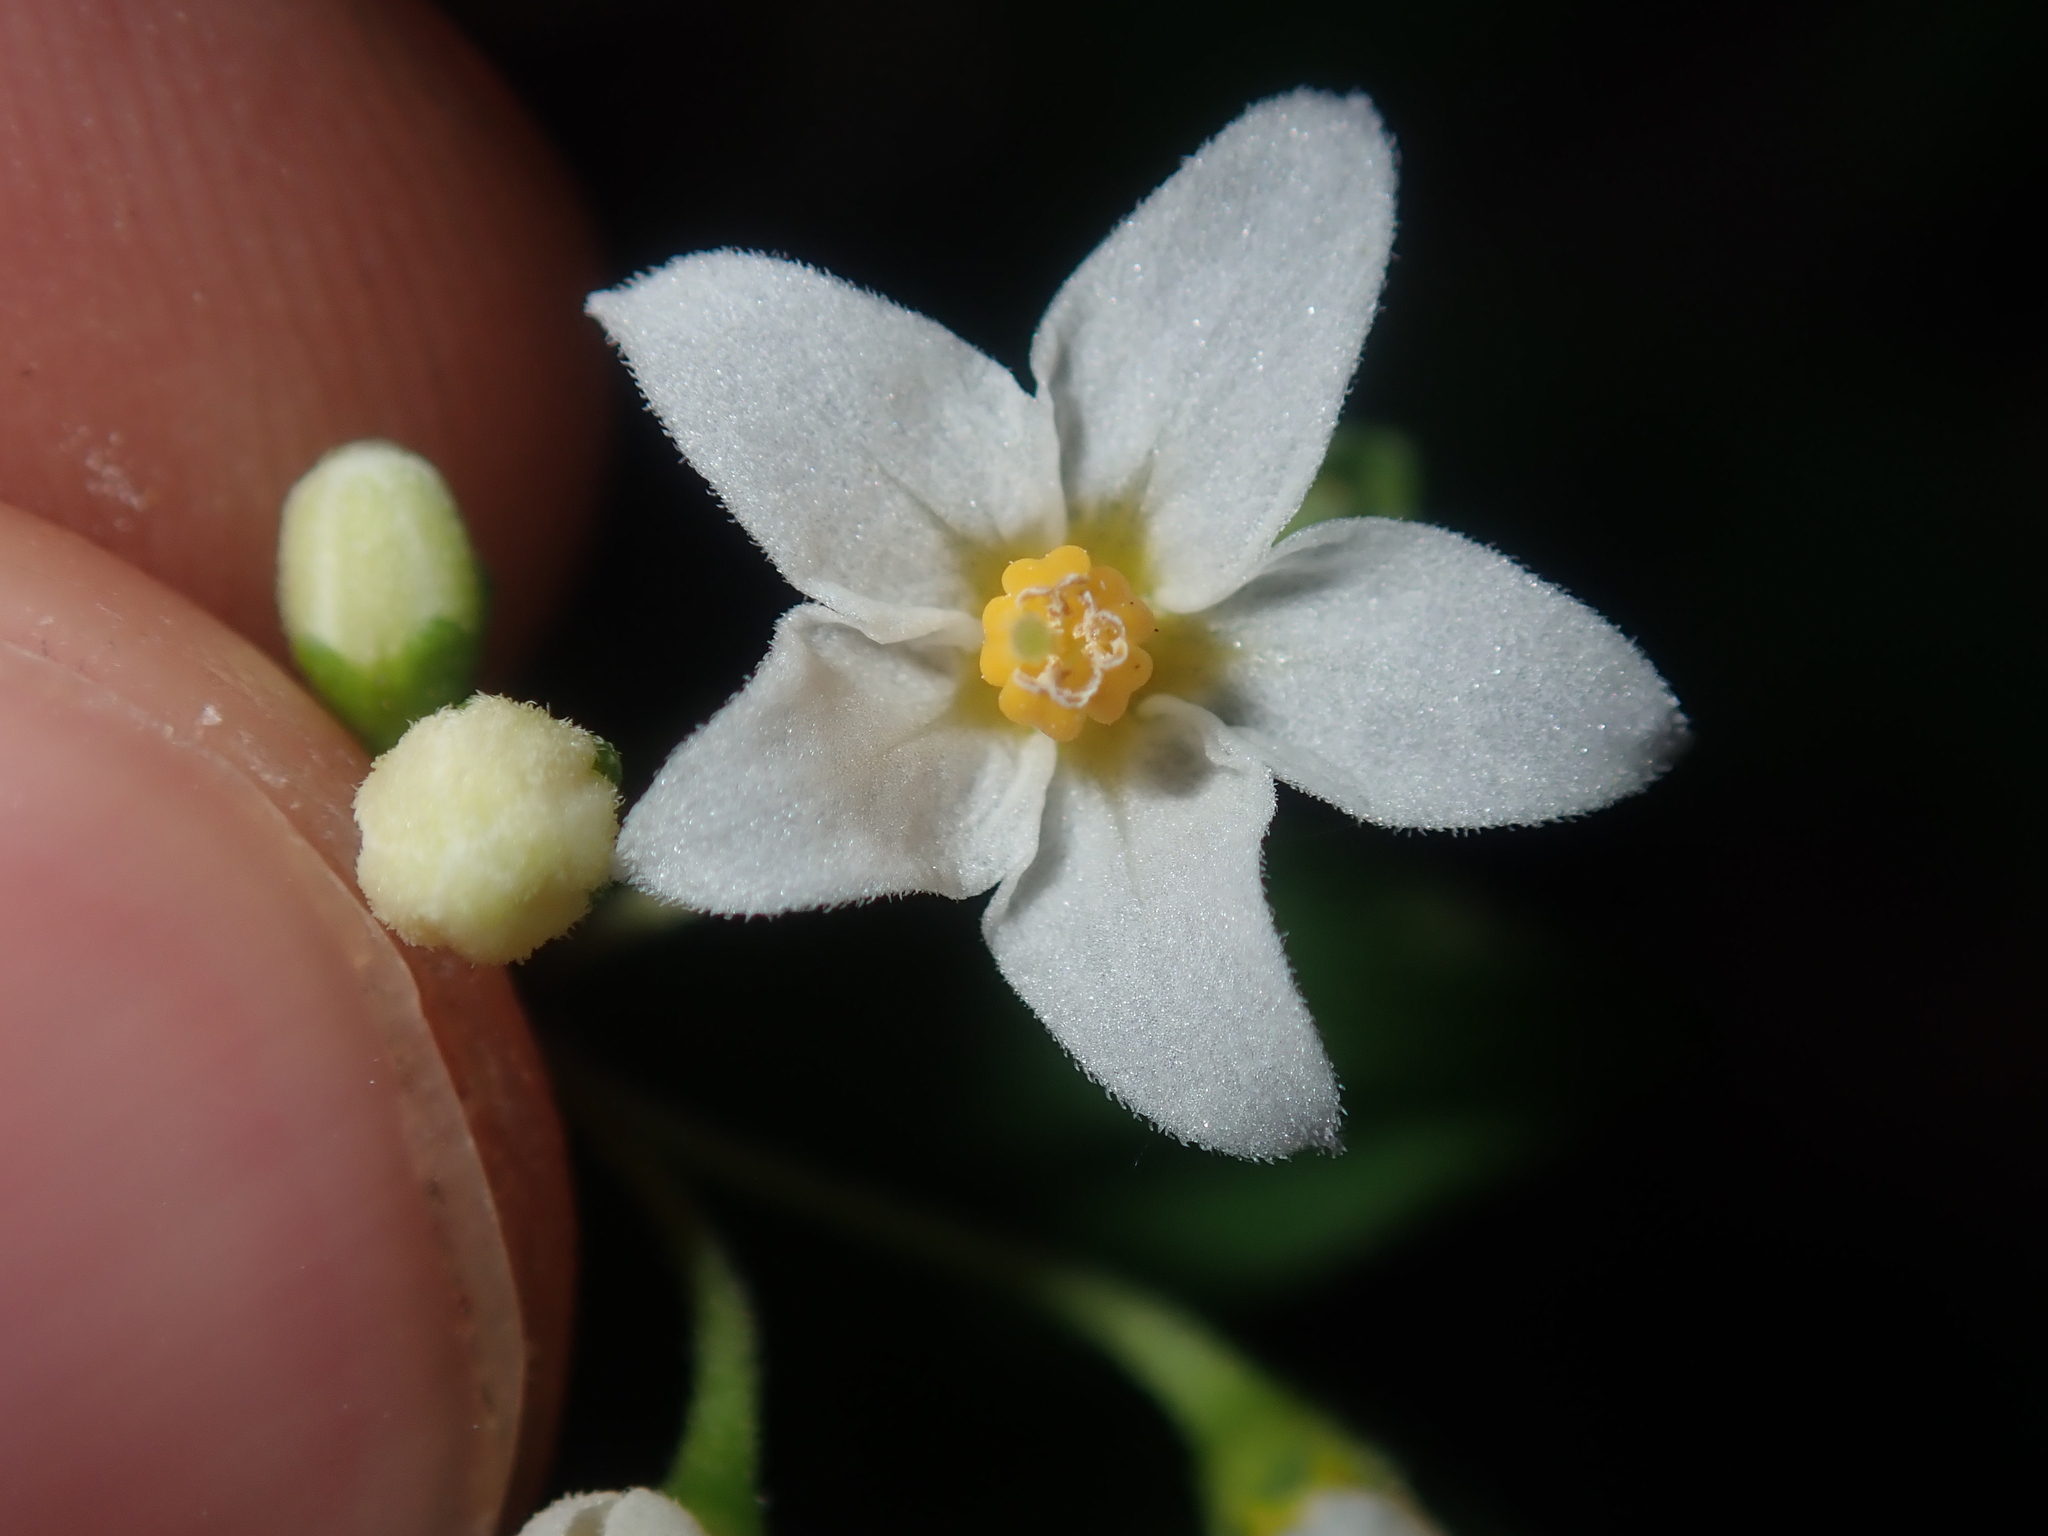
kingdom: Plantae
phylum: Tracheophyta
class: Magnoliopsida
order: Solanales
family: Solanaceae
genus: Solanum
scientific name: Solanum nigrum
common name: Black nightshade
